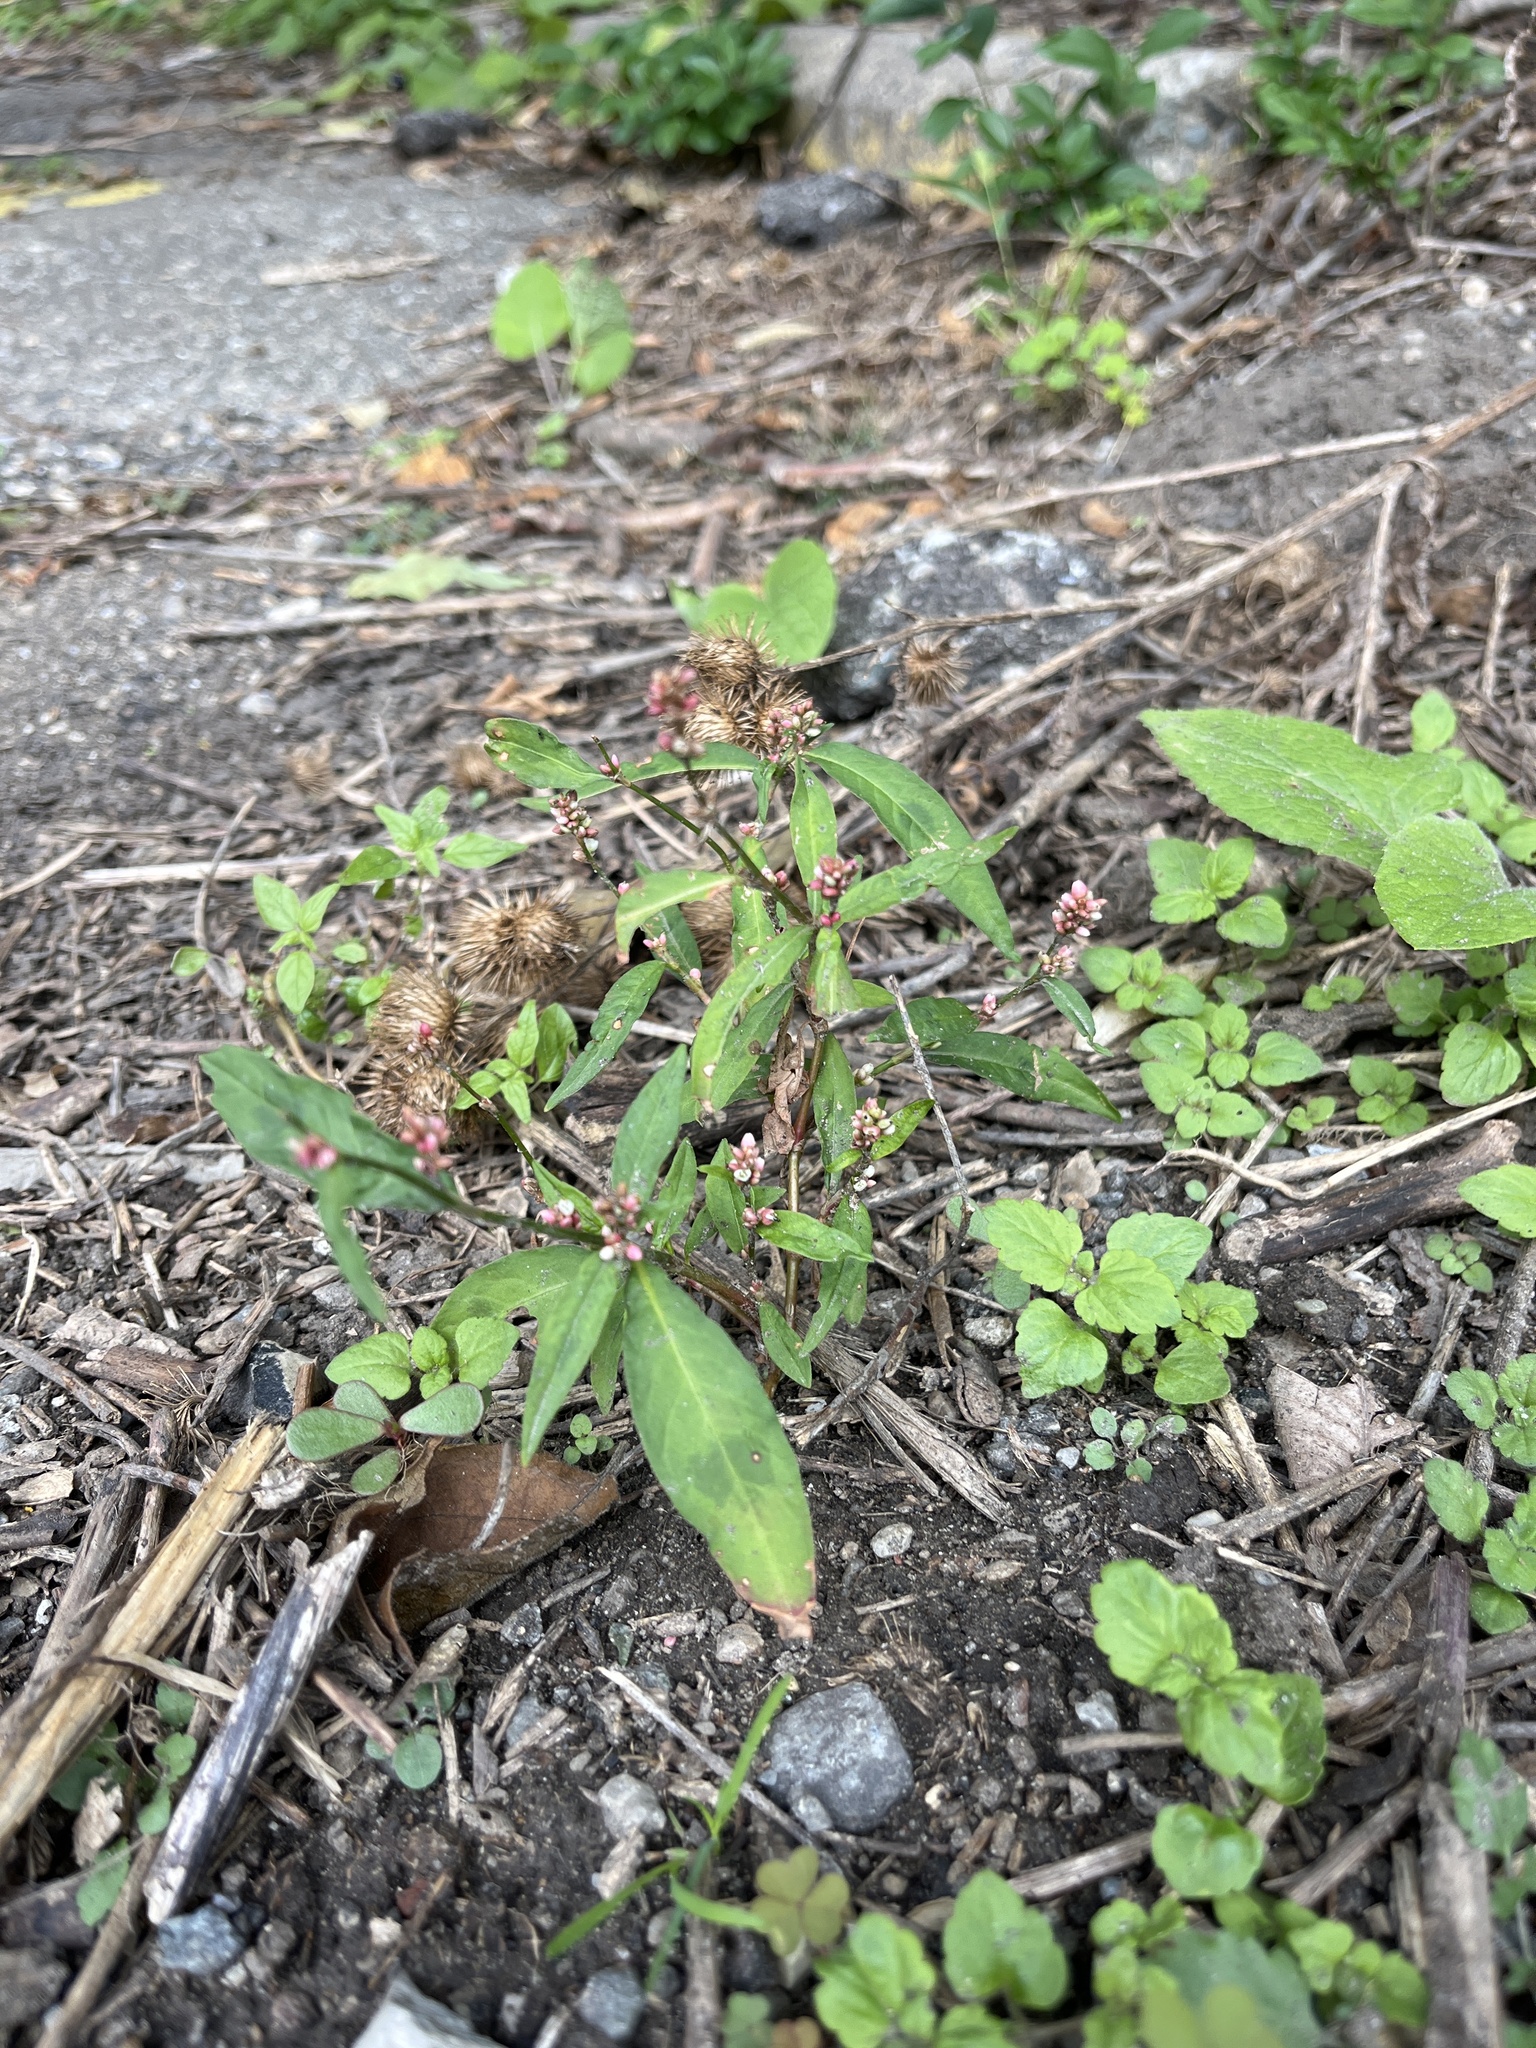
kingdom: Plantae
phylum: Tracheophyta
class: Magnoliopsida
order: Caryophyllales
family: Polygonaceae
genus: Persicaria
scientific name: Persicaria maculosa
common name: Redshank
